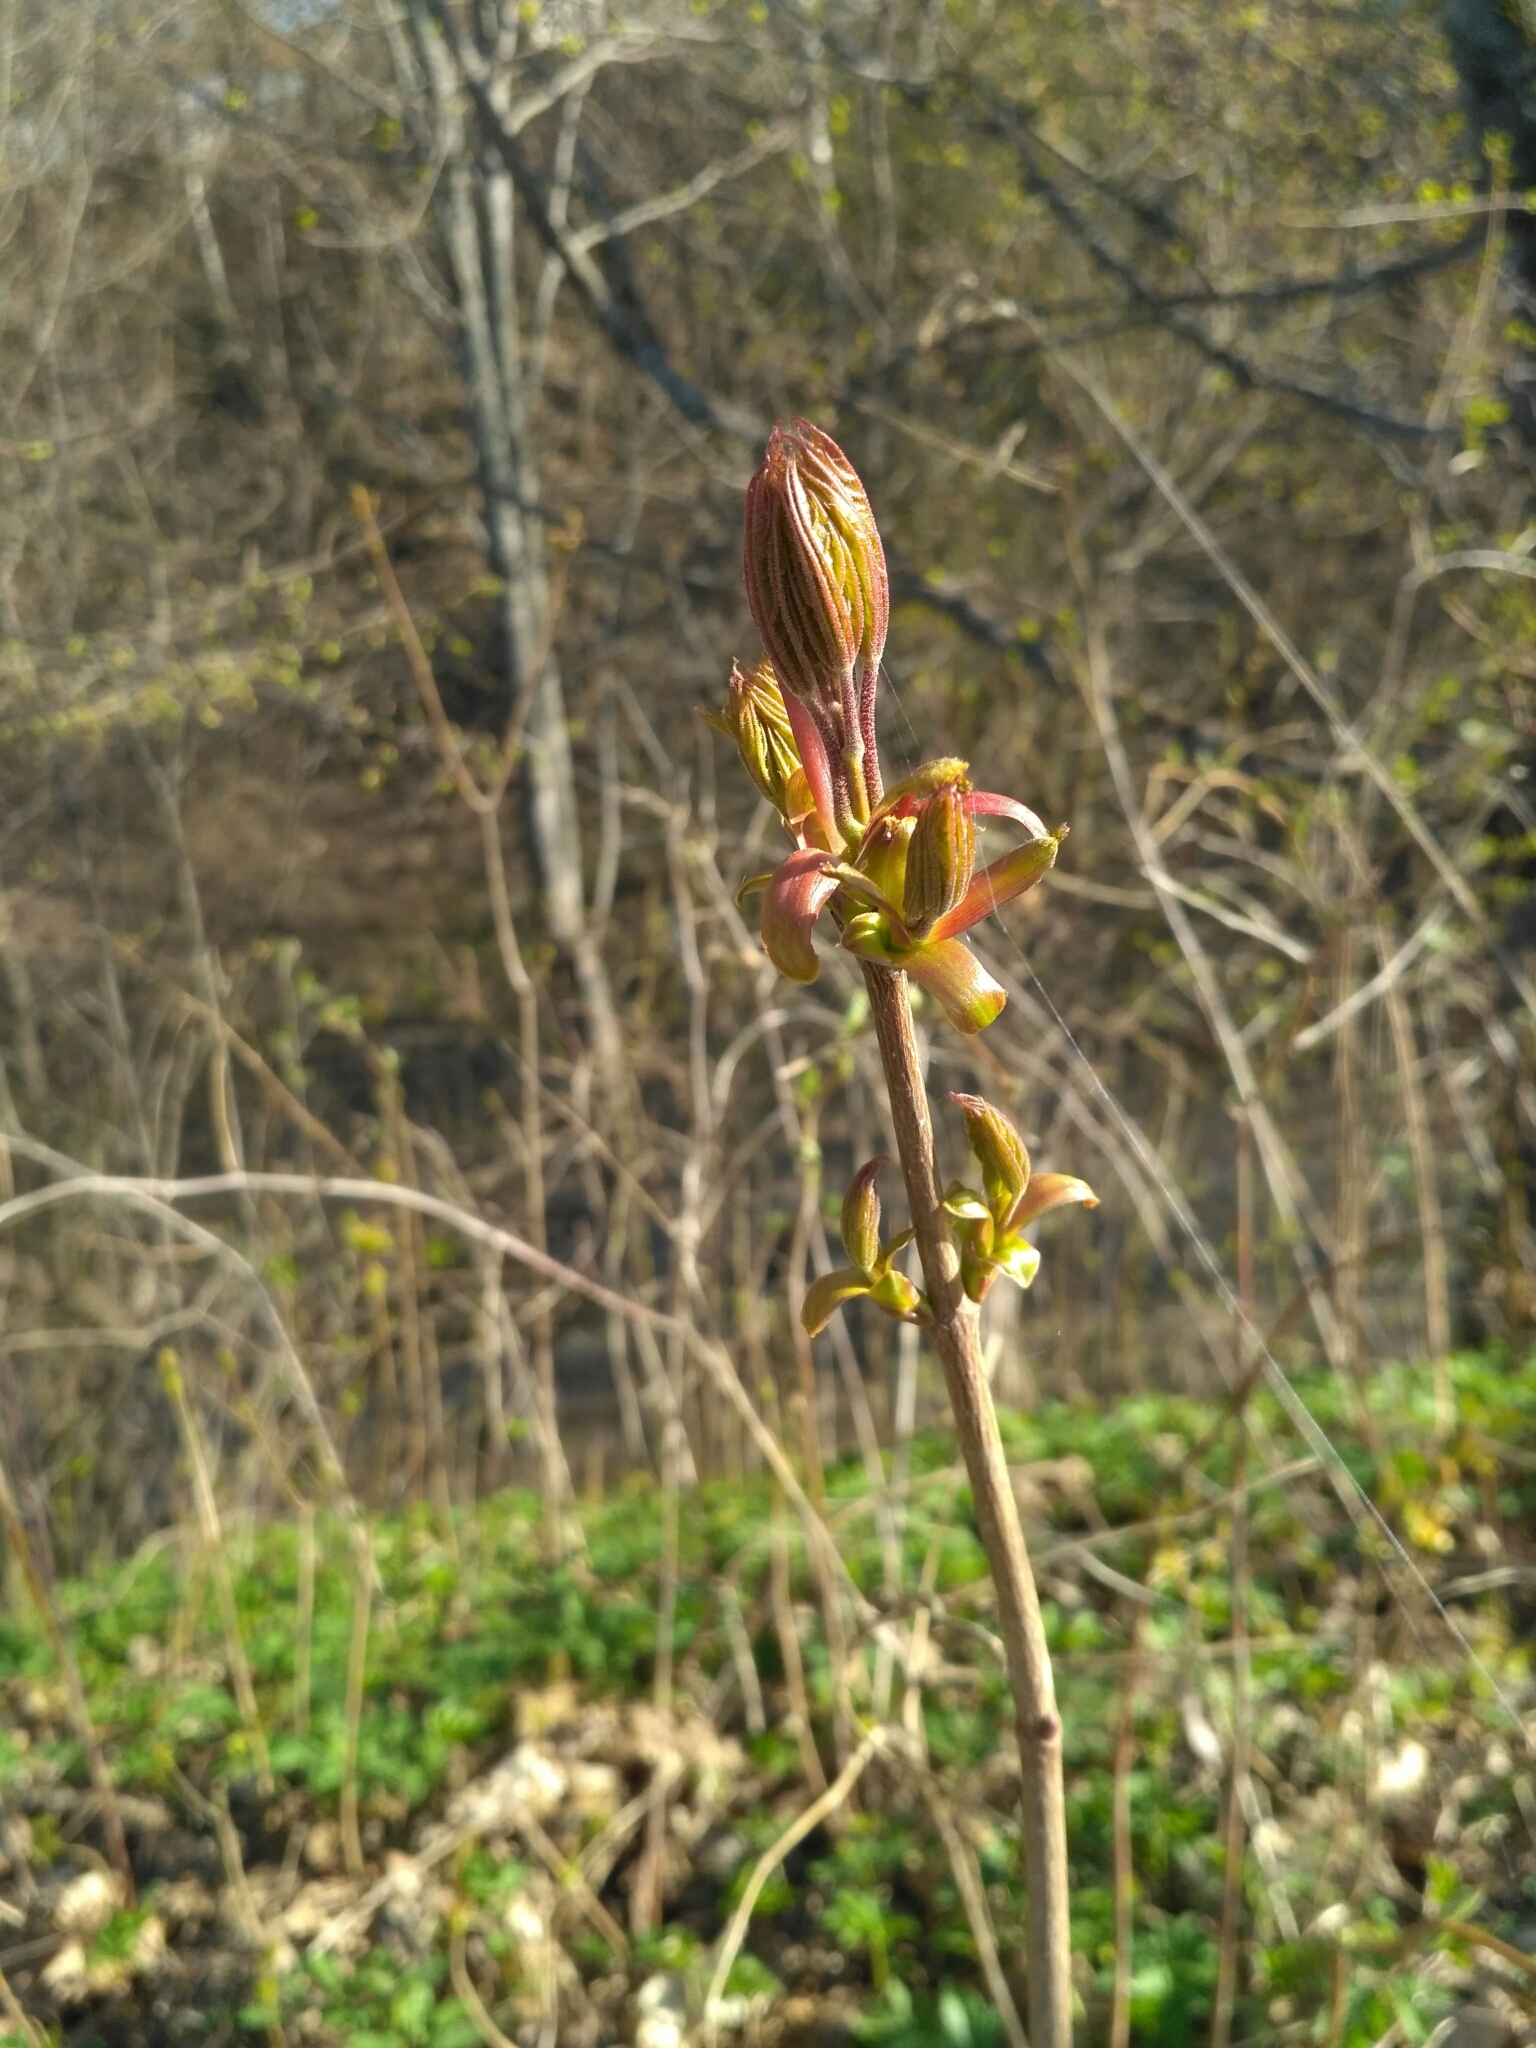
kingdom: Plantae
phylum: Tracheophyta
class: Magnoliopsida
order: Sapindales
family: Sapindaceae
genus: Acer
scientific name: Acer platanoides
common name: Norway maple
